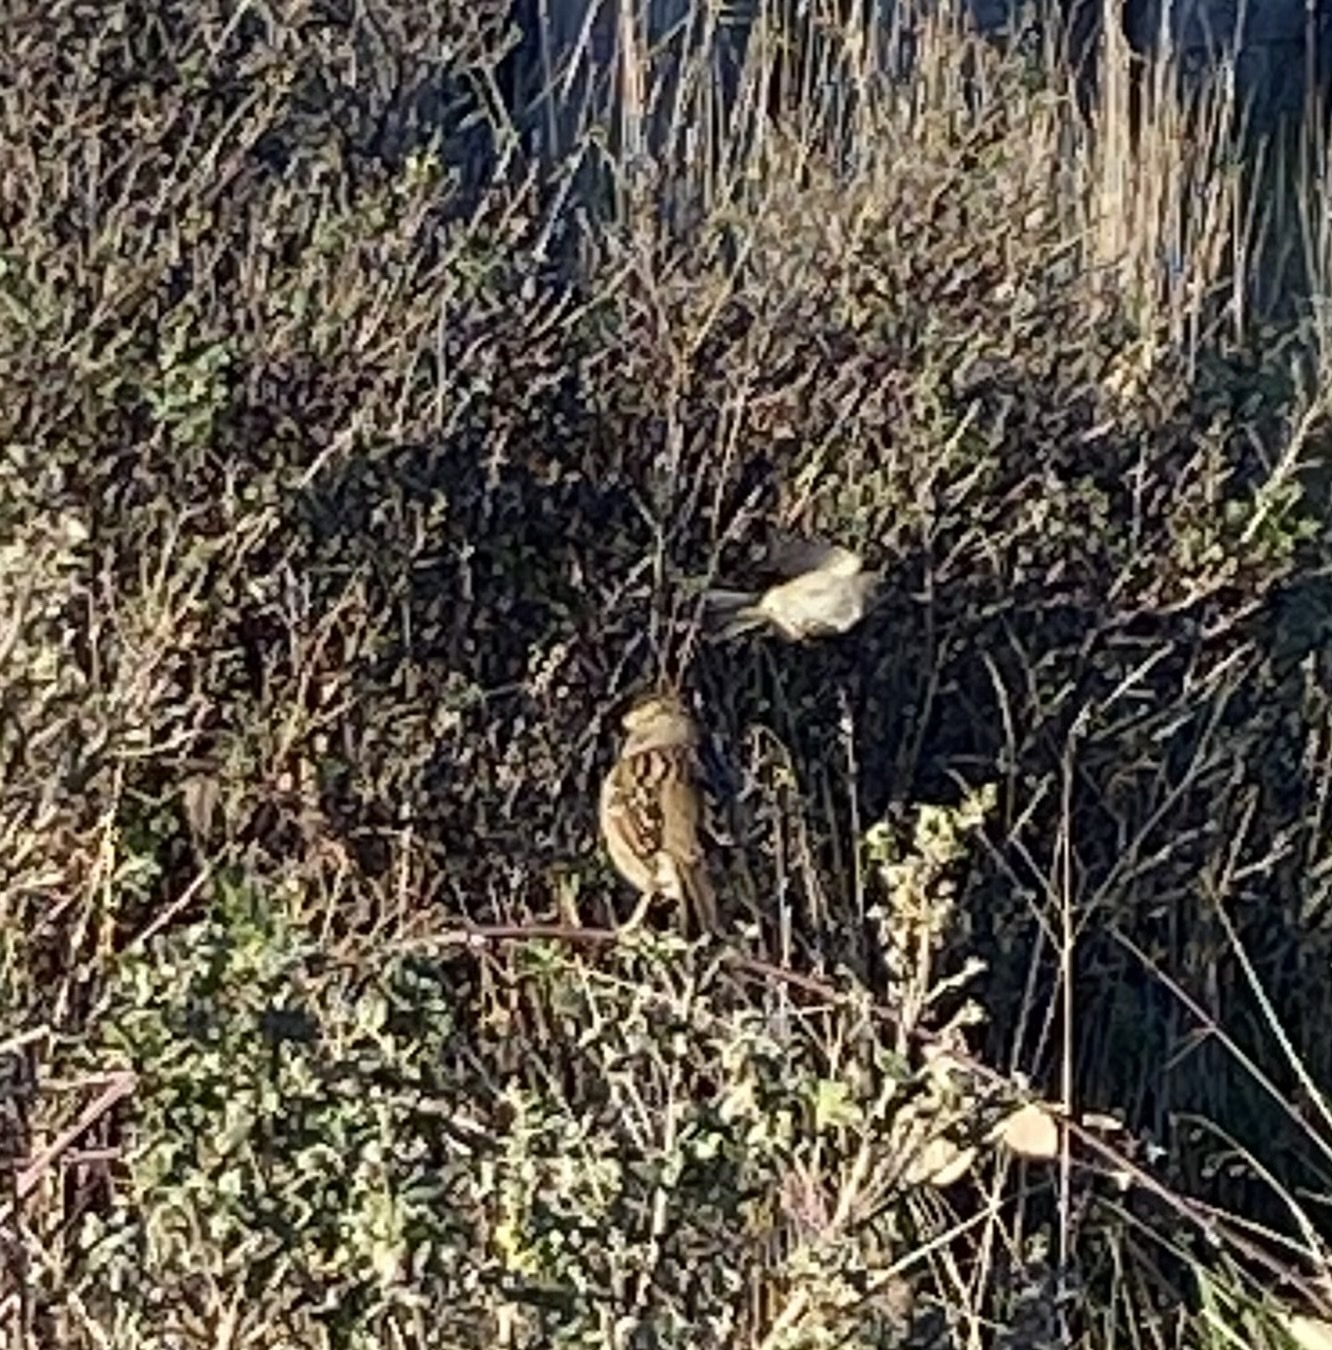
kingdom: Animalia
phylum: Chordata
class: Aves
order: Passeriformes
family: Passerellidae
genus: Zonotrichia
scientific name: Zonotrichia leucophrys
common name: White-crowned sparrow
